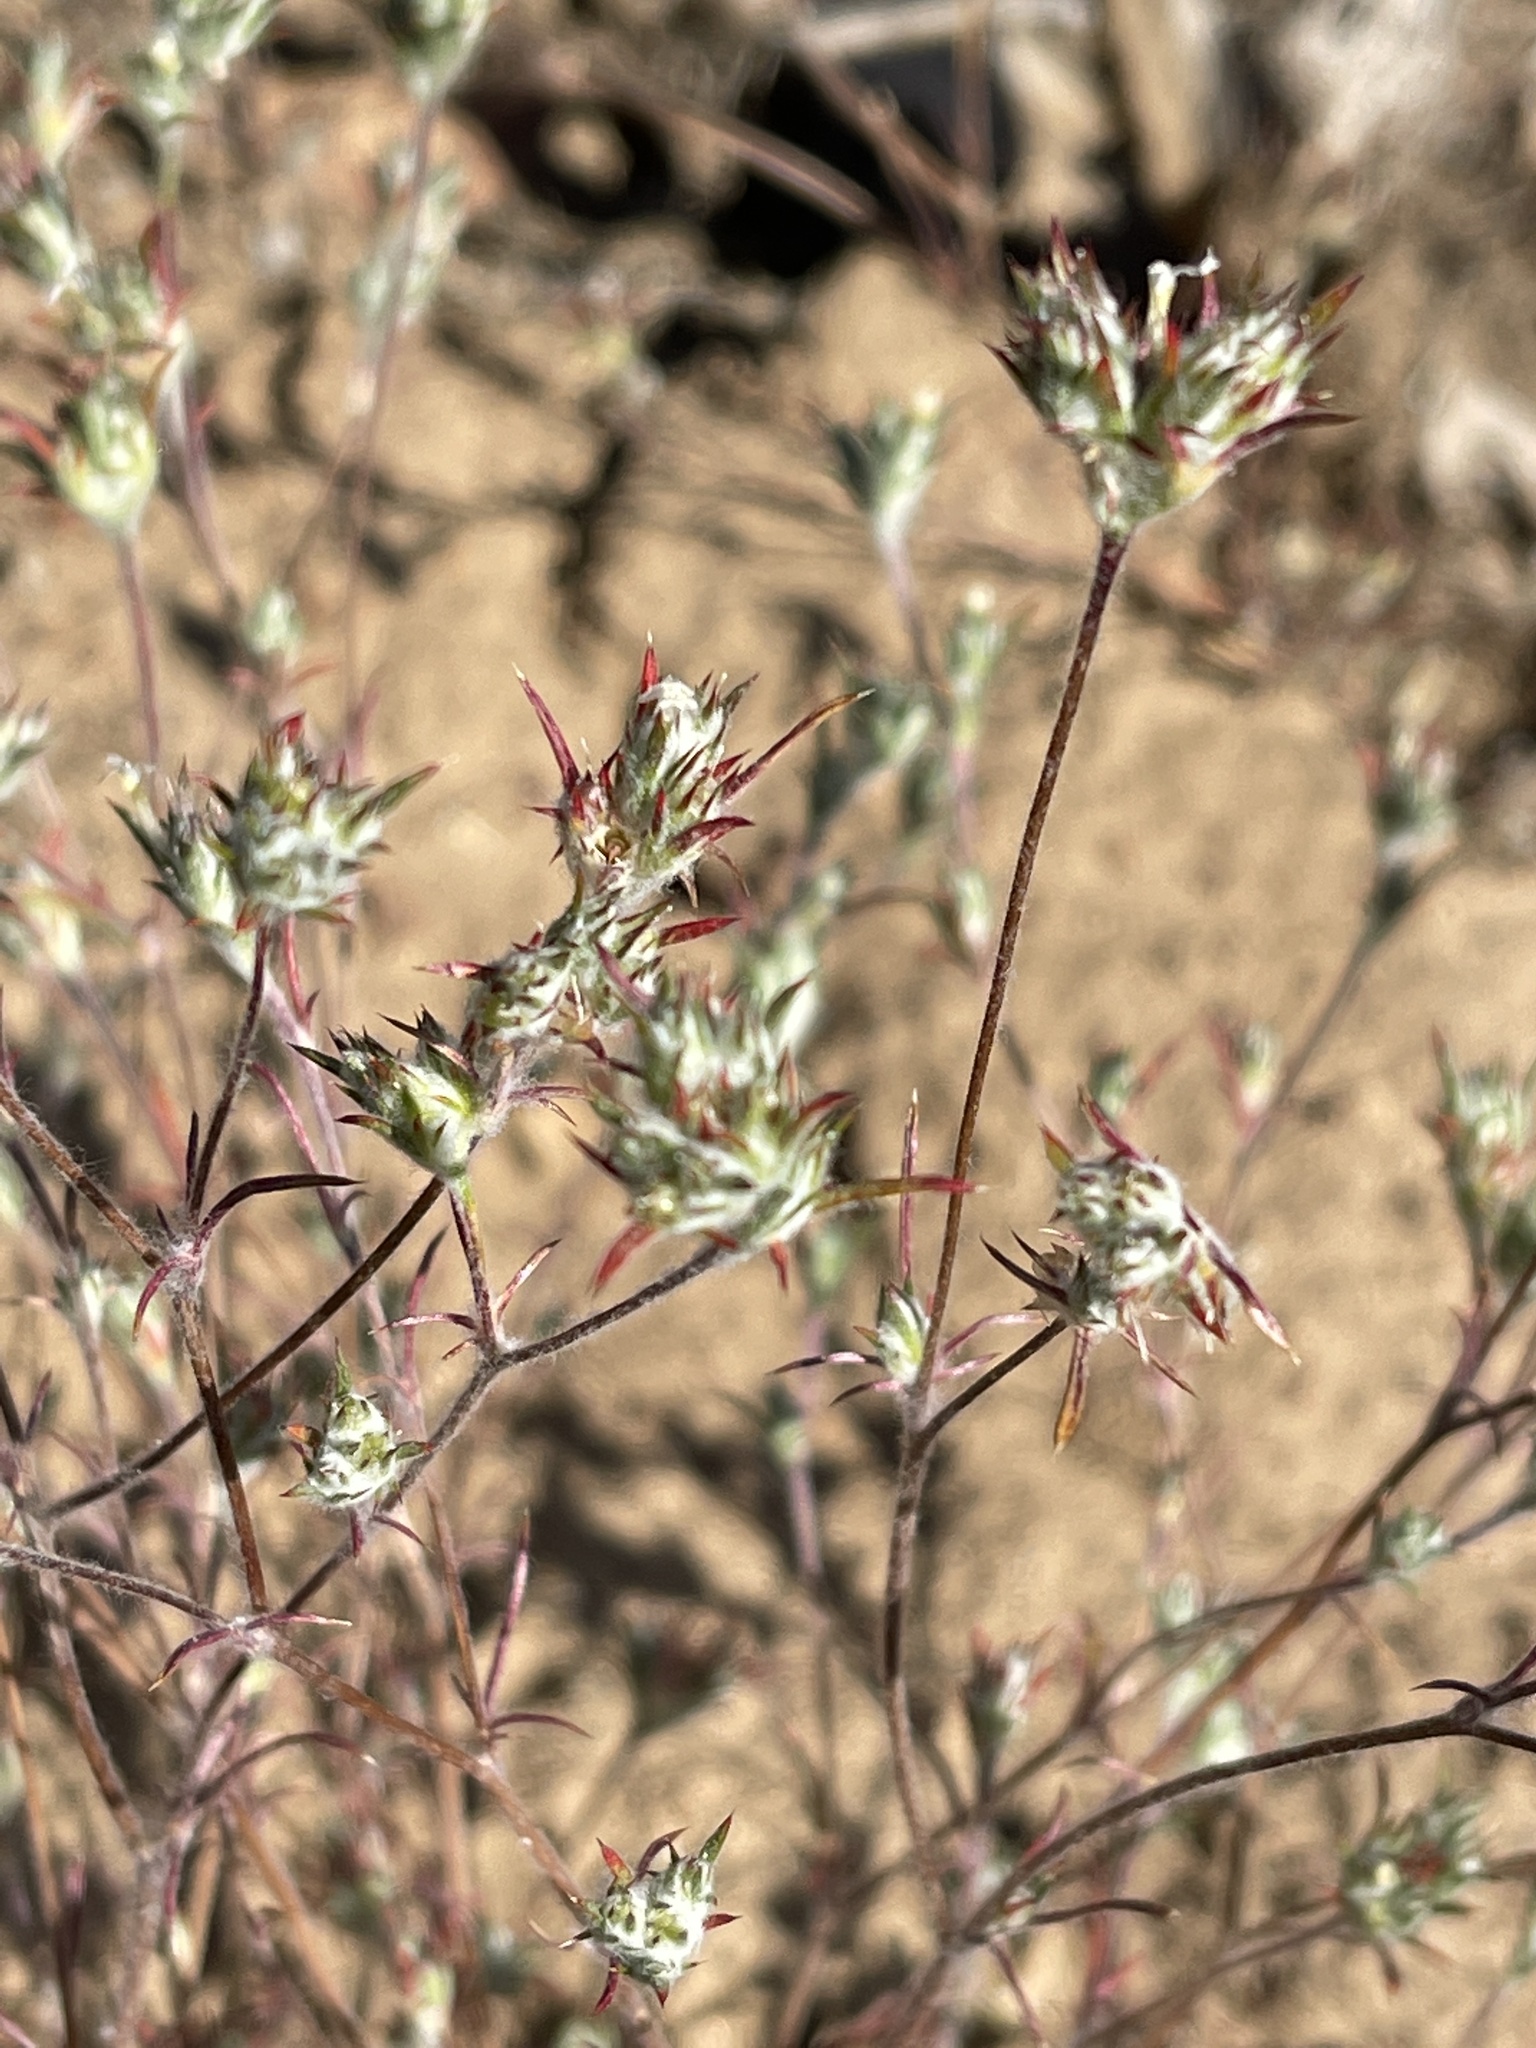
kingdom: Plantae
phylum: Tracheophyta
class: Magnoliopsida
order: Ericales
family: Polemoniaceae
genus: Eriastrum
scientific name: Eriastrum tracyi
